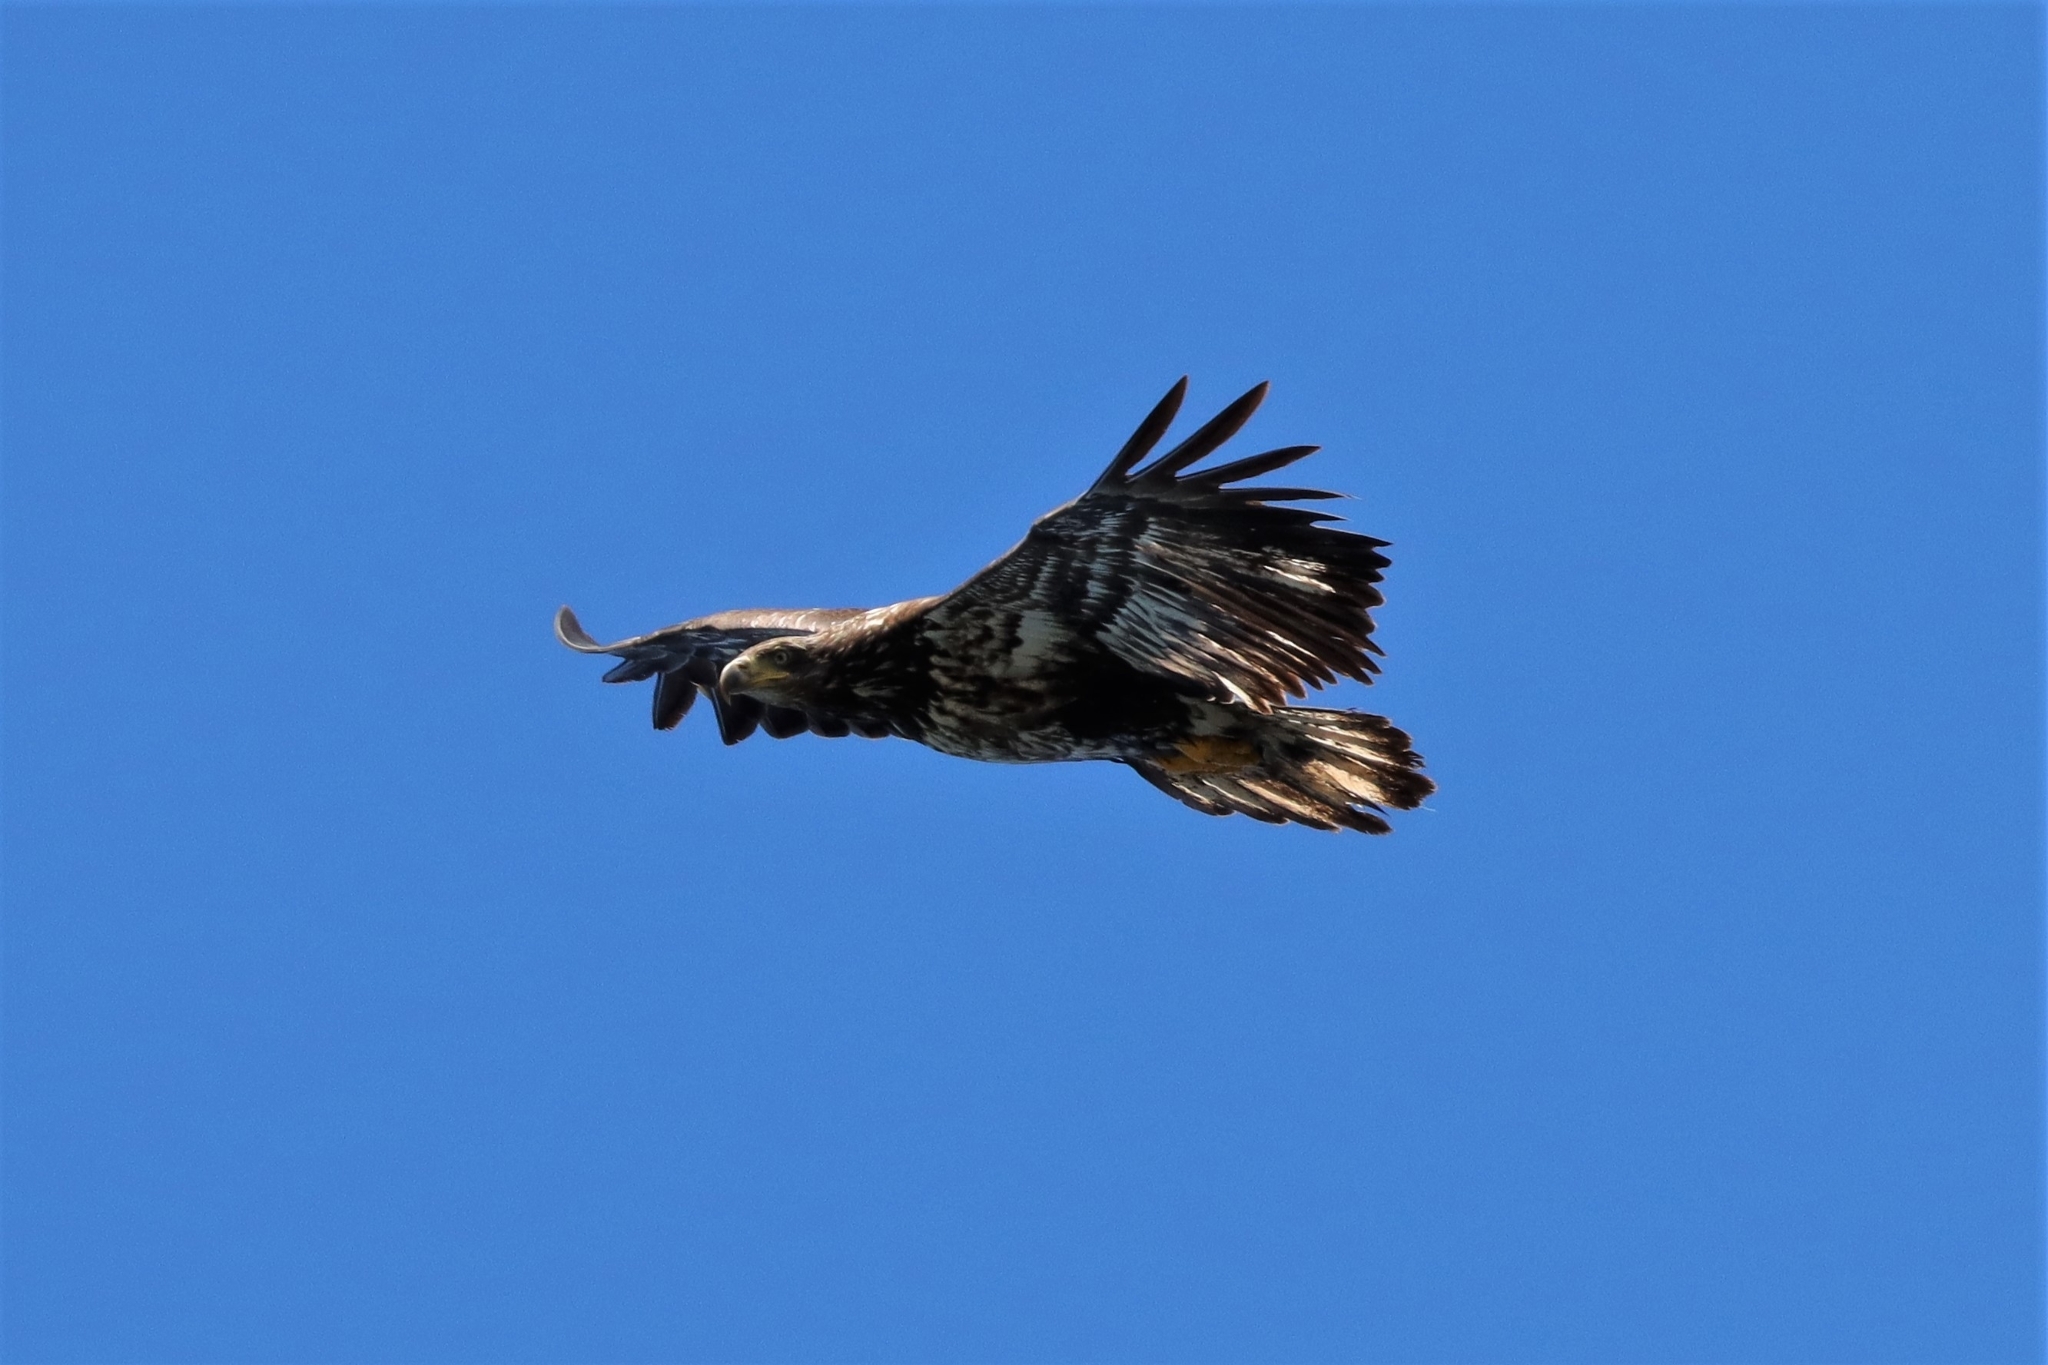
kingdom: Animalia
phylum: Chordata
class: Aves
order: Accipitriformes
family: Accipitridae
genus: Haliaeetus
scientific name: Haliaeetus leucocephalus
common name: Bald eagle
